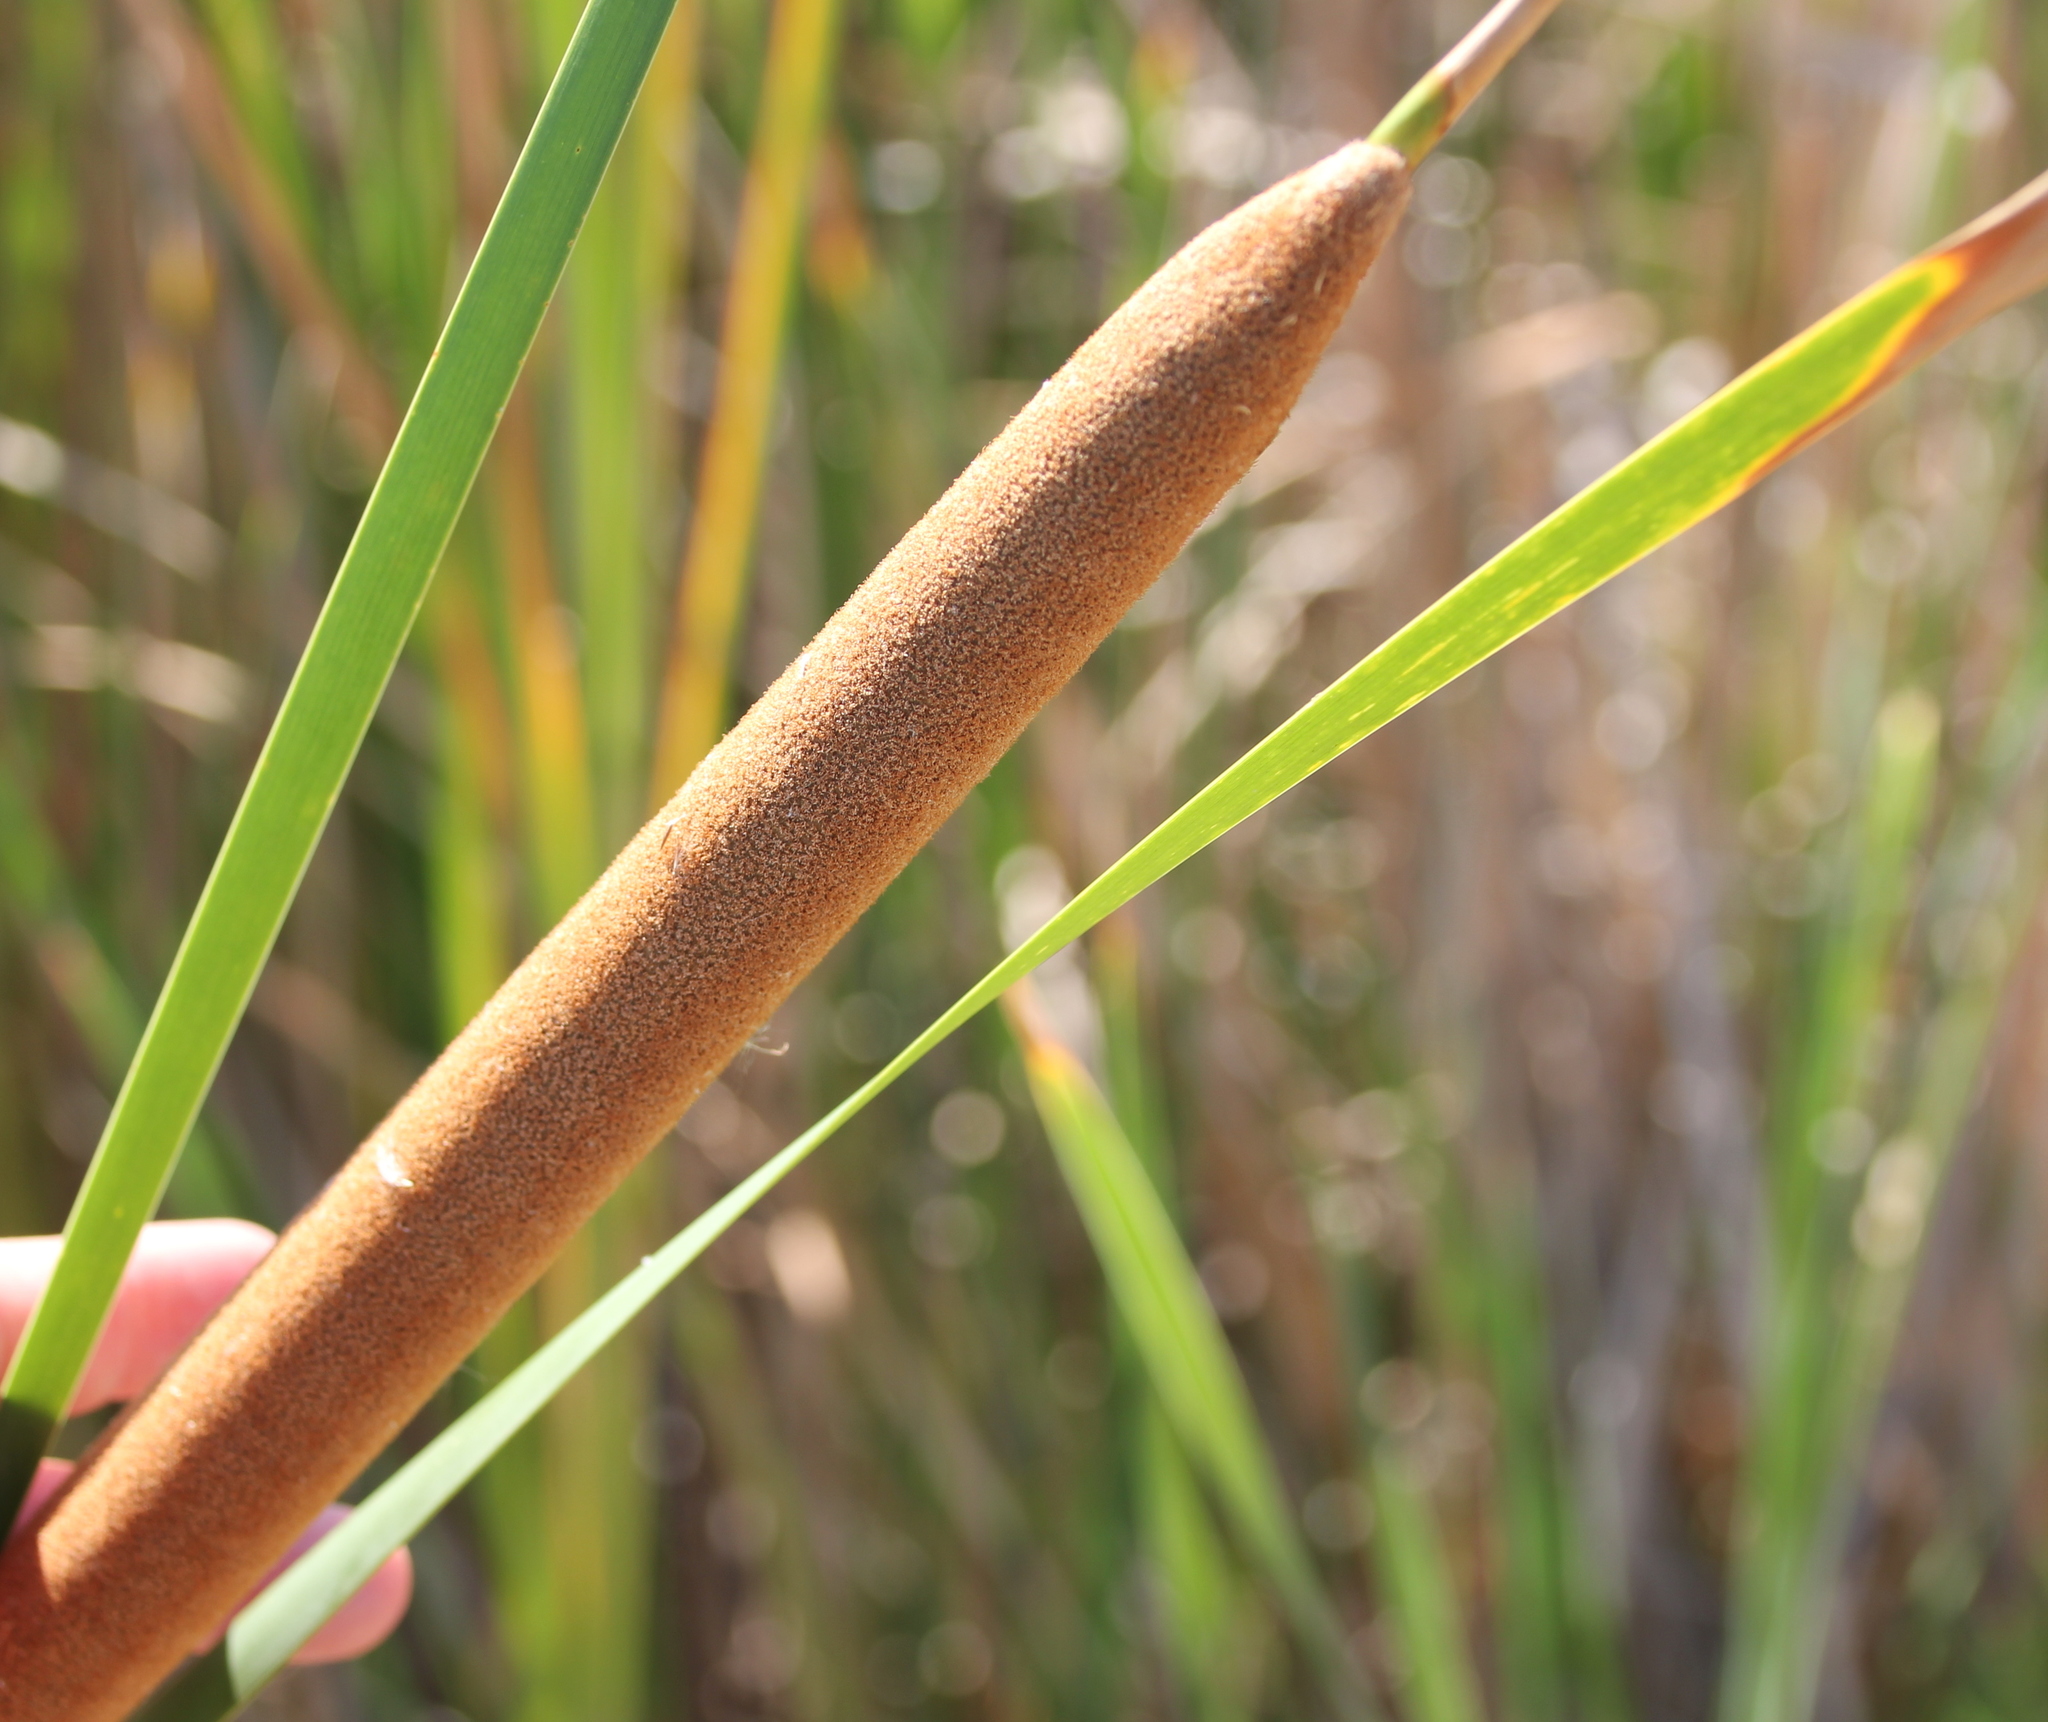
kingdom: Plantae
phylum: Tracheophyta
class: Liliopsida
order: Poales
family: Typhaceae
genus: Typha
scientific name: Typha domingensis
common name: Southern cattail
